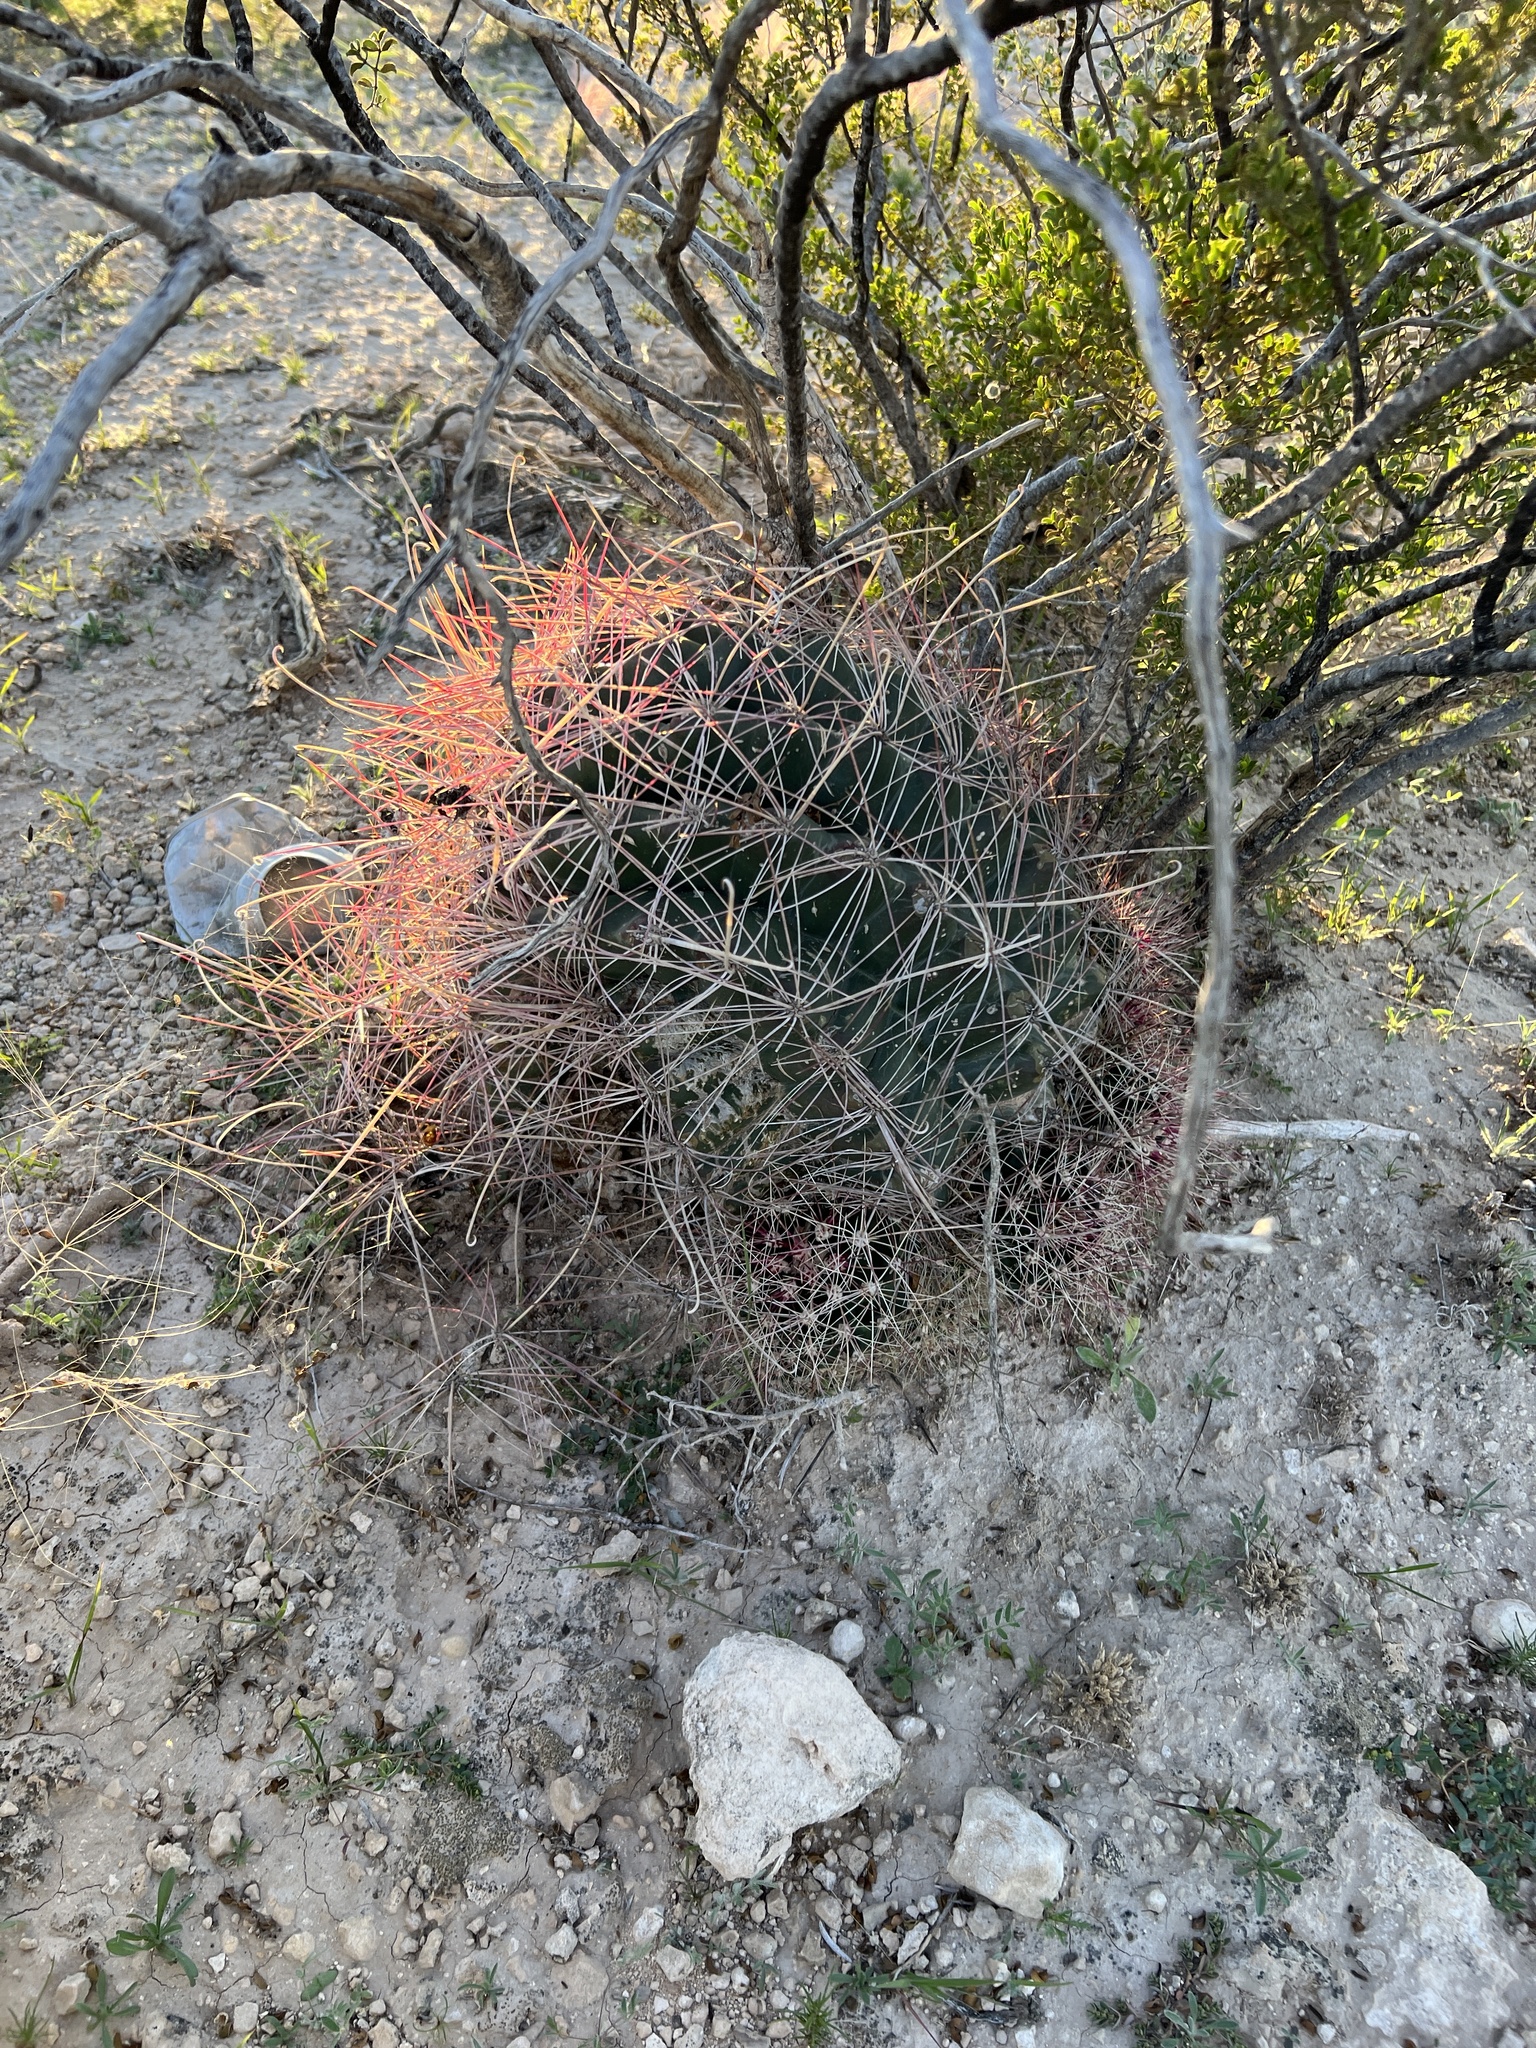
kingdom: Plantae
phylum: Tracheophyta
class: Magnoliopsida
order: Caryophyllales
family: Cactaceae
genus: Bisnaga
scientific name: Bisnaga hamatacantha
